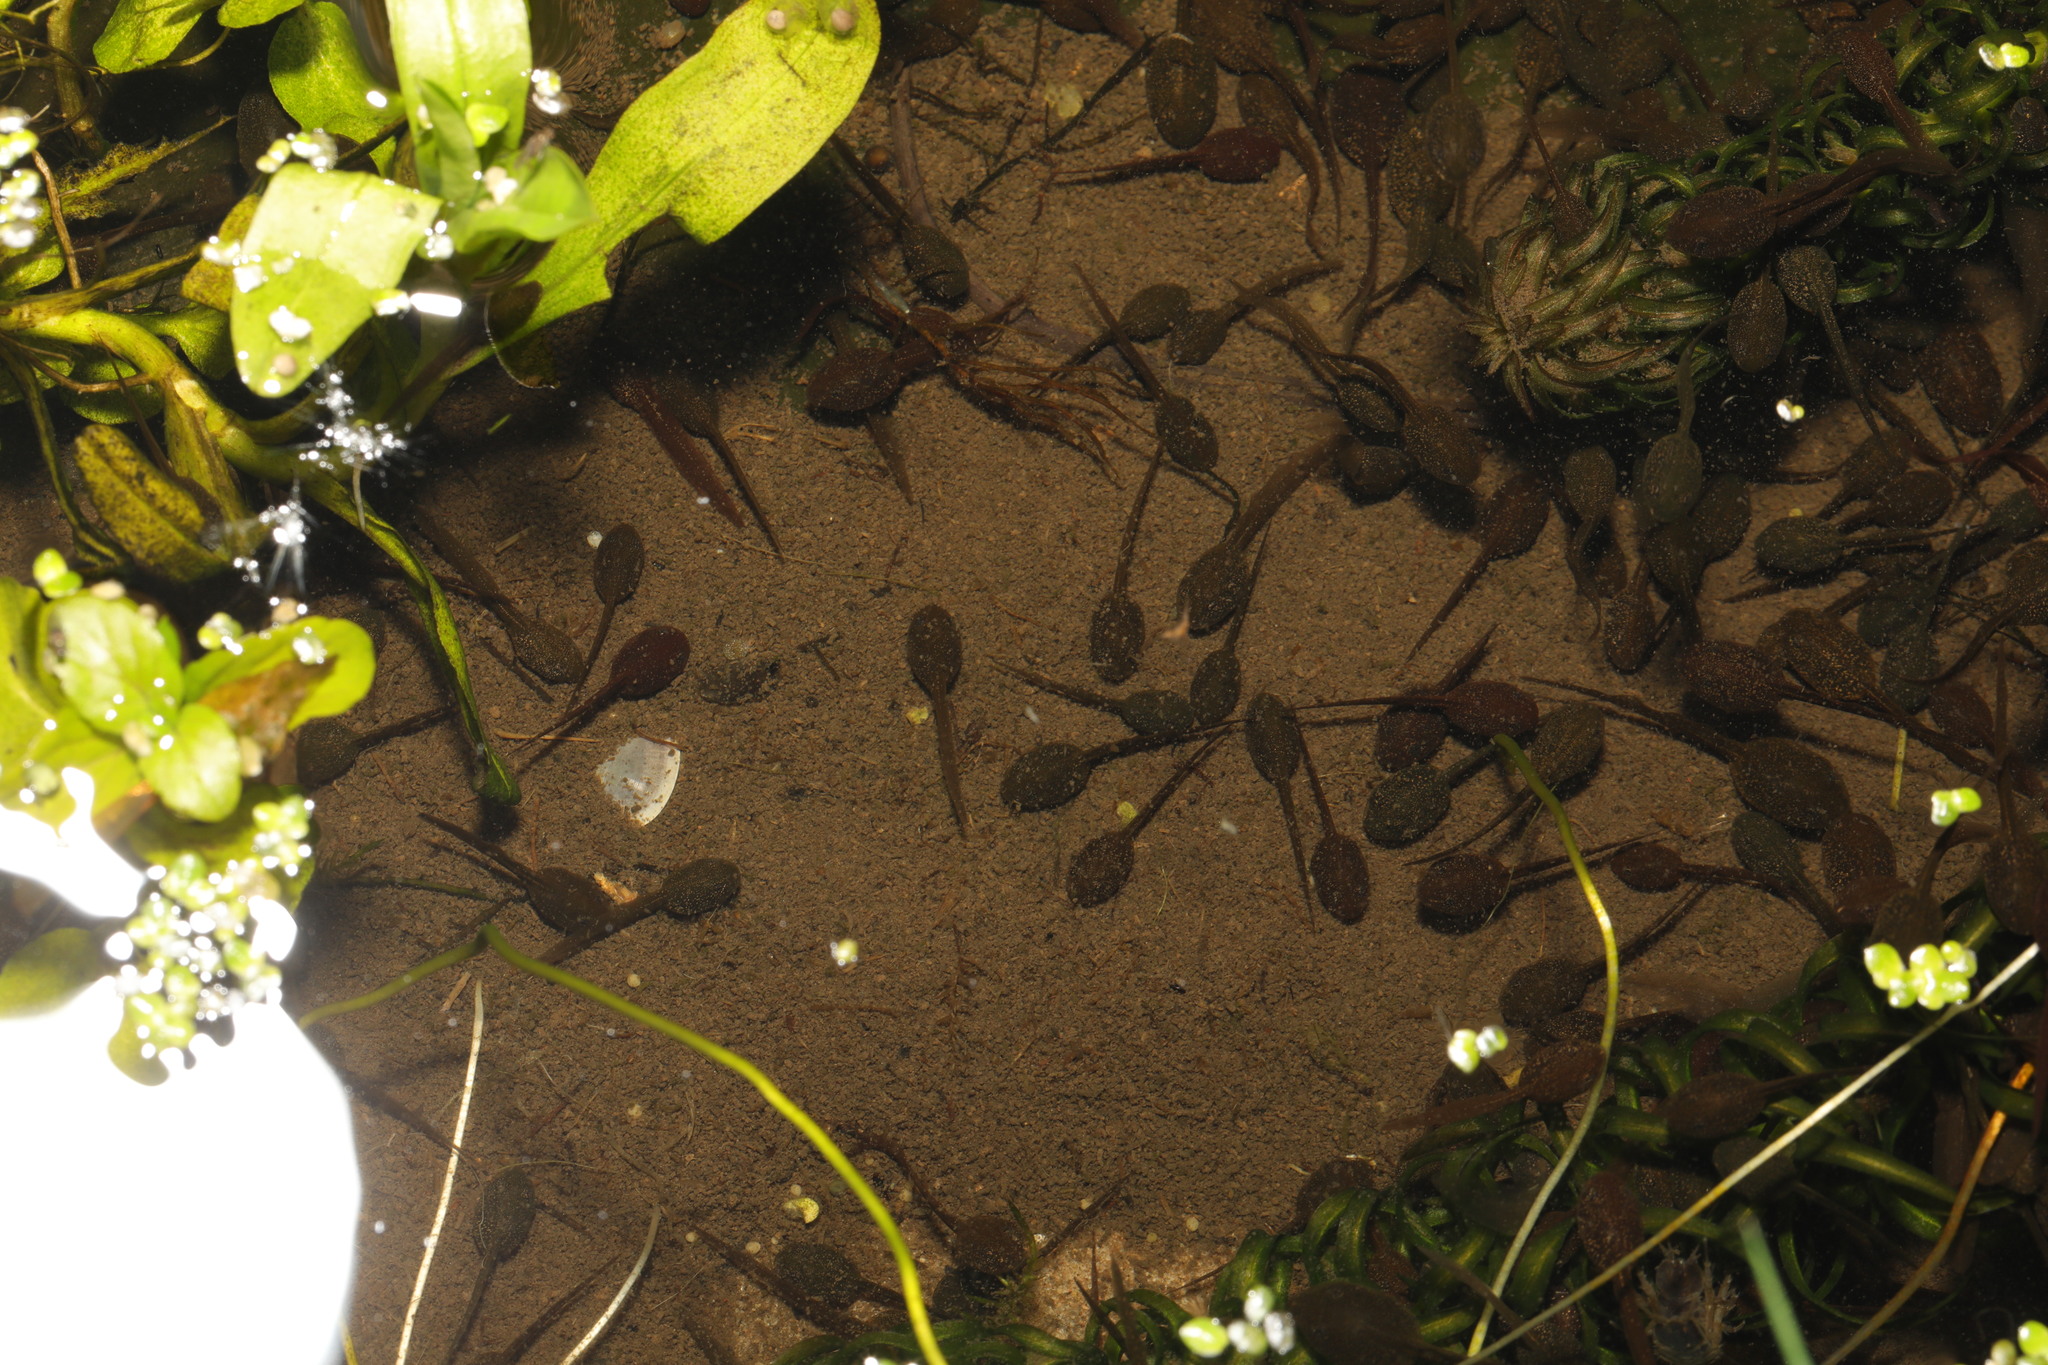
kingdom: Animalia
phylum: Chordata
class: Amphibia
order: Anura
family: Ranidae
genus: Rana
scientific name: Rana temporaria
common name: Common frog
